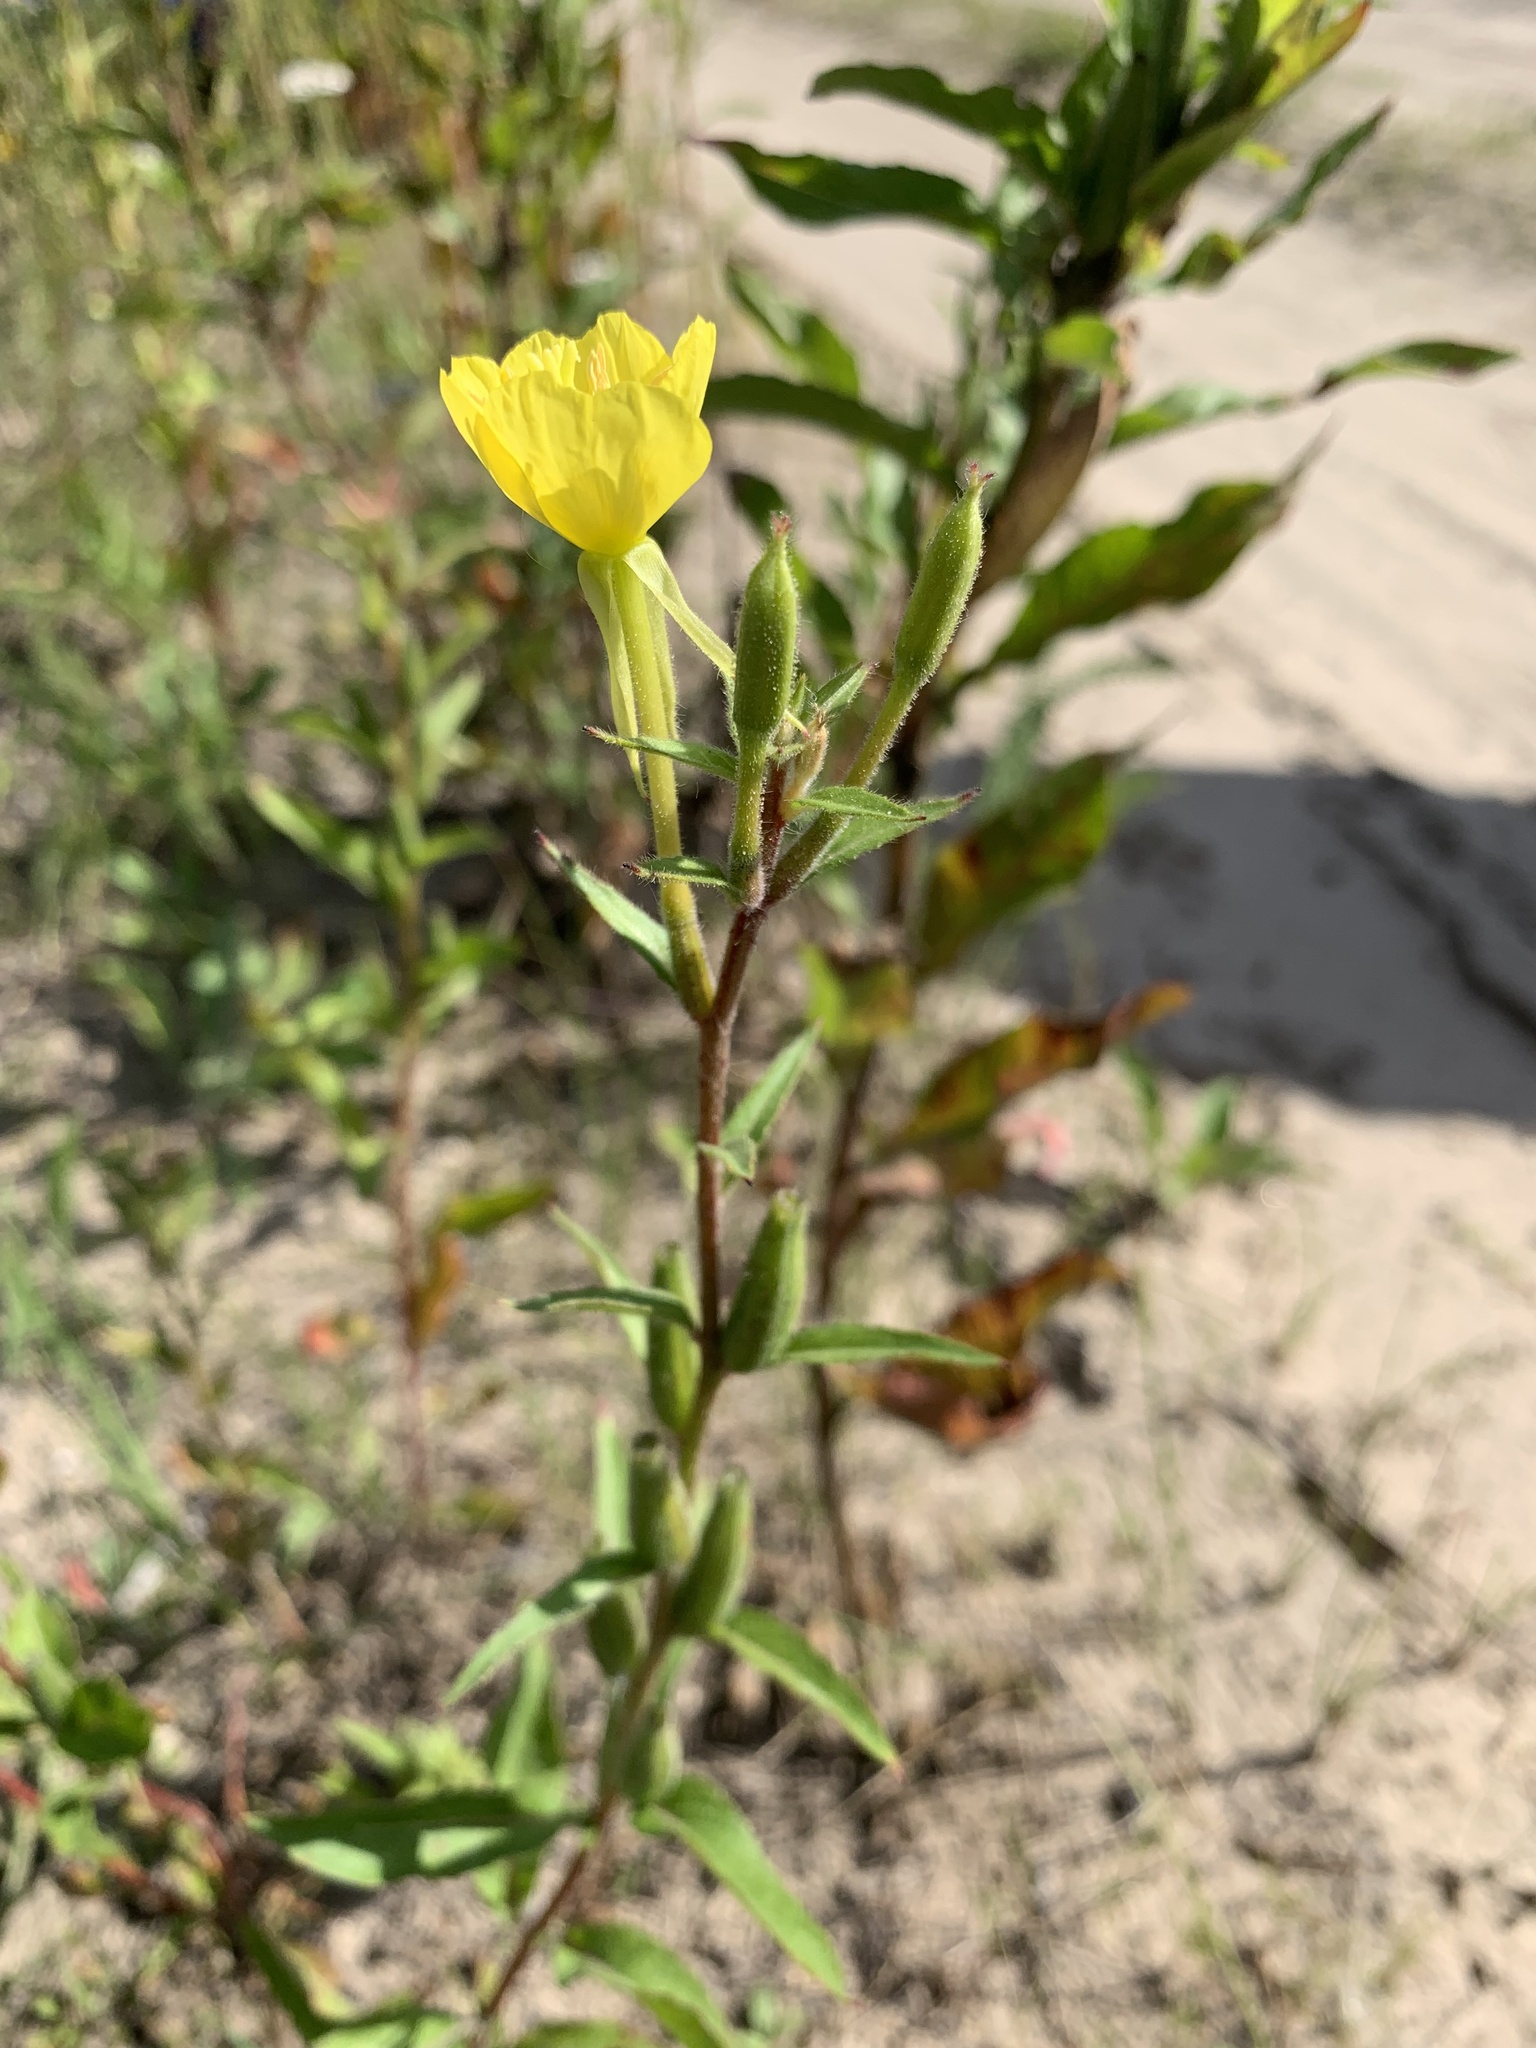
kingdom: Plantae
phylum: Tracheophyta
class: Magnoliopsida
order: Myrtales
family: Onagraceae
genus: Oenothera
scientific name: Oenothera rubricaulis
